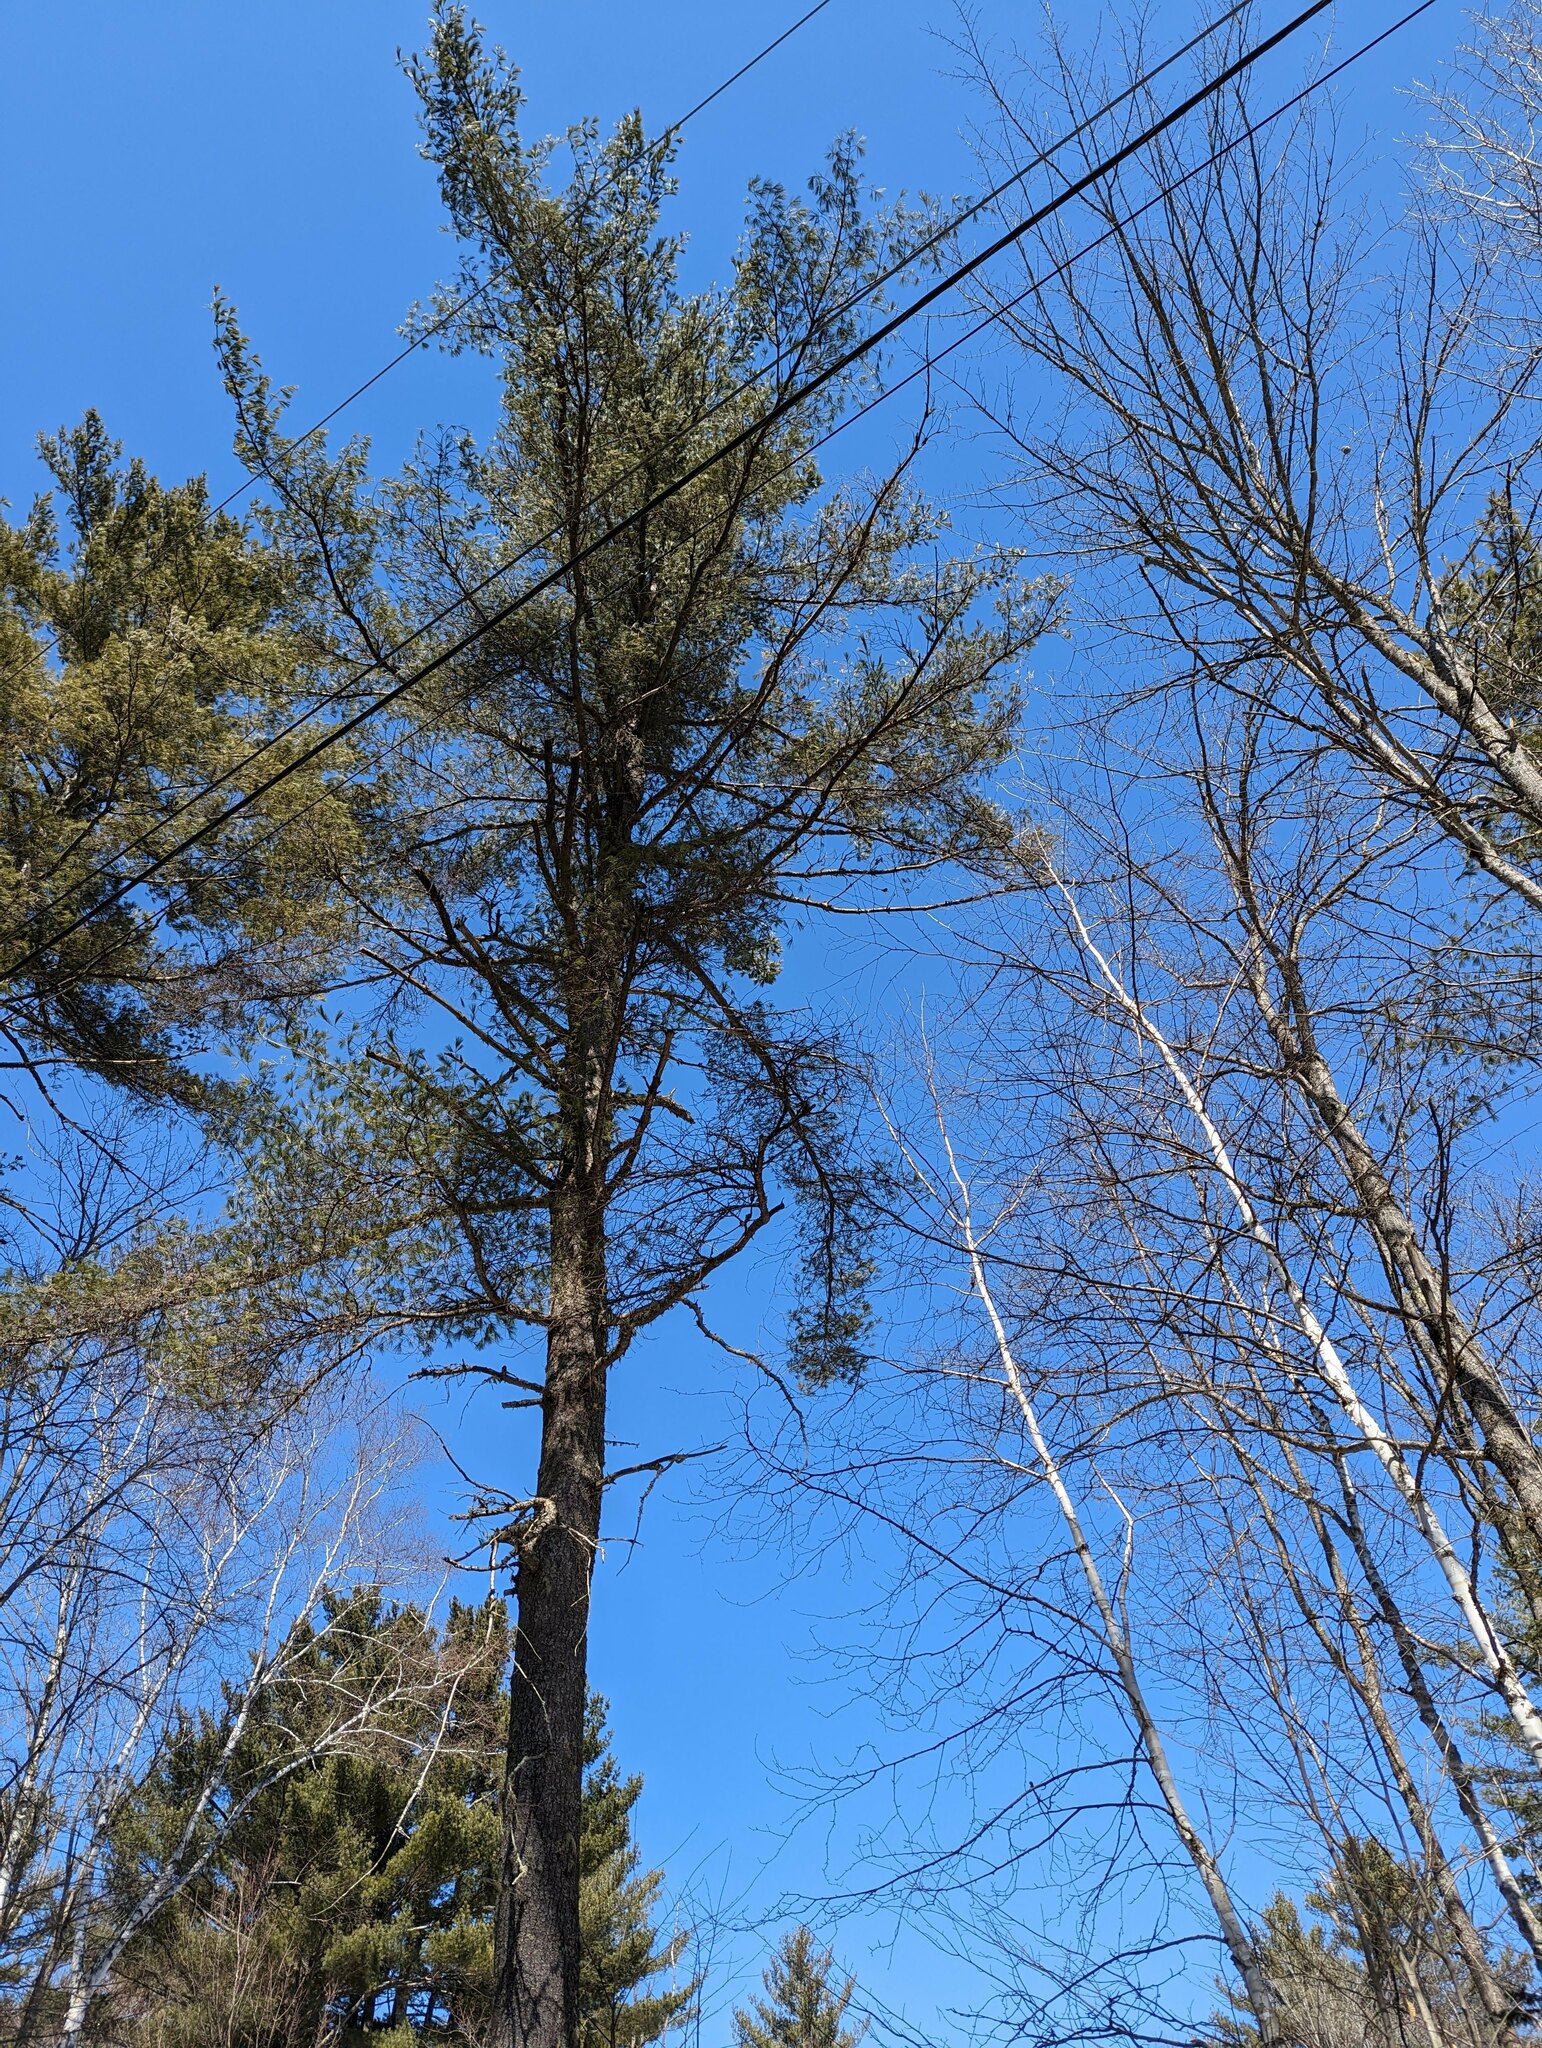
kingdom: Plantae
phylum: Tracheophyta
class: Pinopsida
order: Pinales
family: Pinaceae
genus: Pinus
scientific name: Pinus strobus
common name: Weymouth pine
